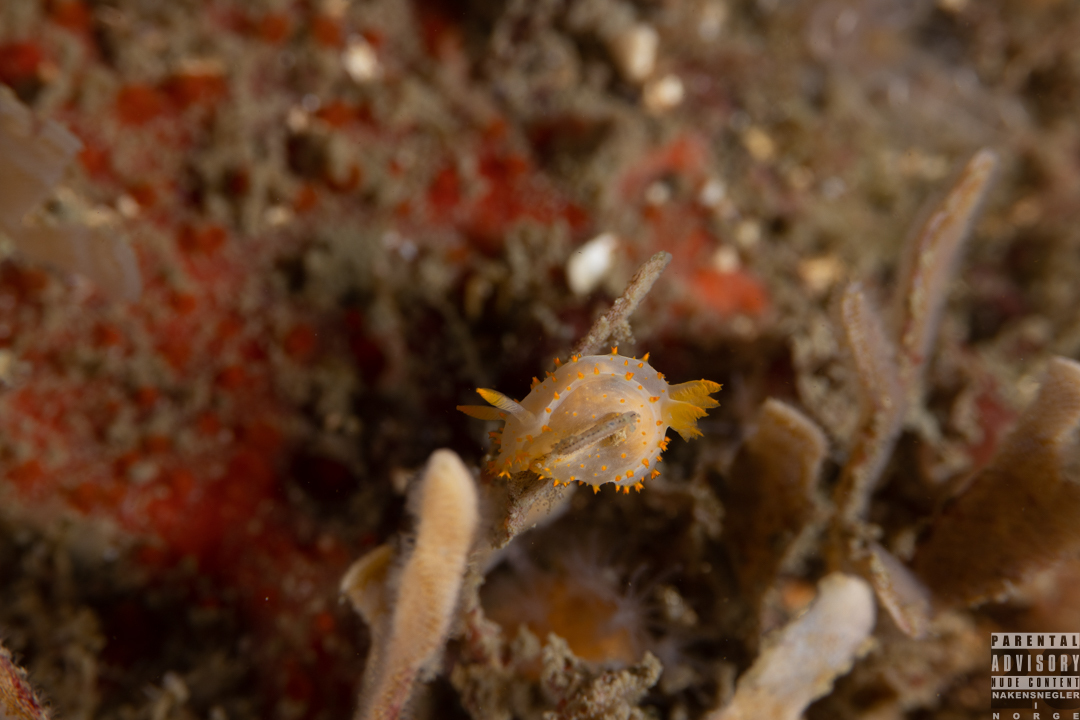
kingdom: Animalia
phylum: Mollusca
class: Gastropoda
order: Nudibranchia
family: Polyceridae
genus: Crimora
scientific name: Crimora papillata
